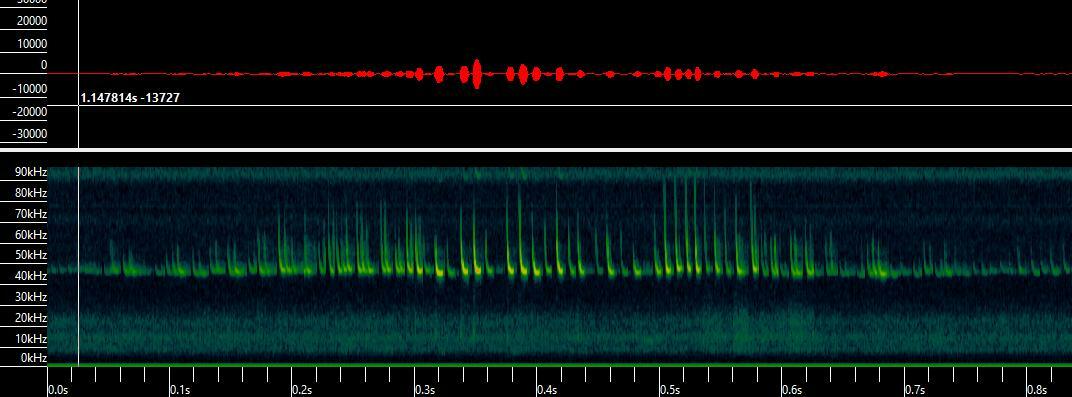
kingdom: Animalia
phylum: Chordata
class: Mammalia
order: Chiroptera
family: Vespertilionidae
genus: Pipistrellus
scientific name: Pipistrellus pipistrellus
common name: Common pipistrelle
